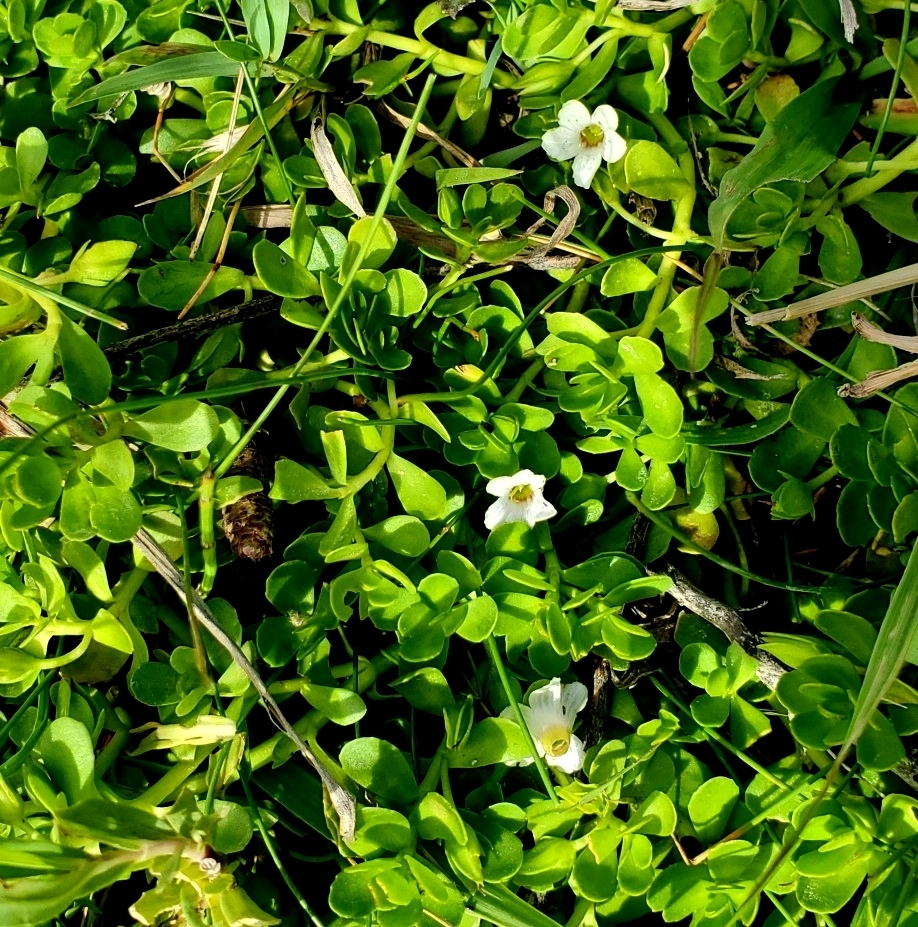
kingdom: Plantae
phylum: Tracheophyta
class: Magnoliopsida
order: Lamiales
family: Plantaginaceae
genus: Bacopa
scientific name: Bacopa monnieri
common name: Indian-pennywort
